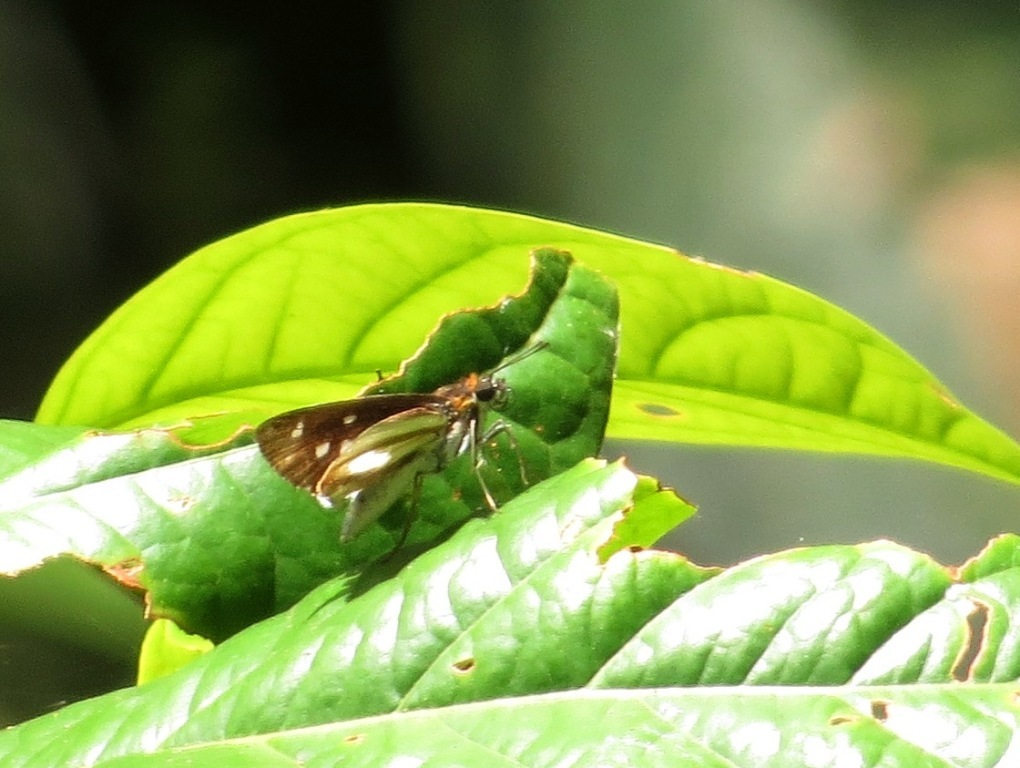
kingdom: Animalia
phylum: Arthropoda
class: Insecta
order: Lepidoptera
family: Hesperiidae
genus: Vettius
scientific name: Vettius marcus
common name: Marcus skipper
